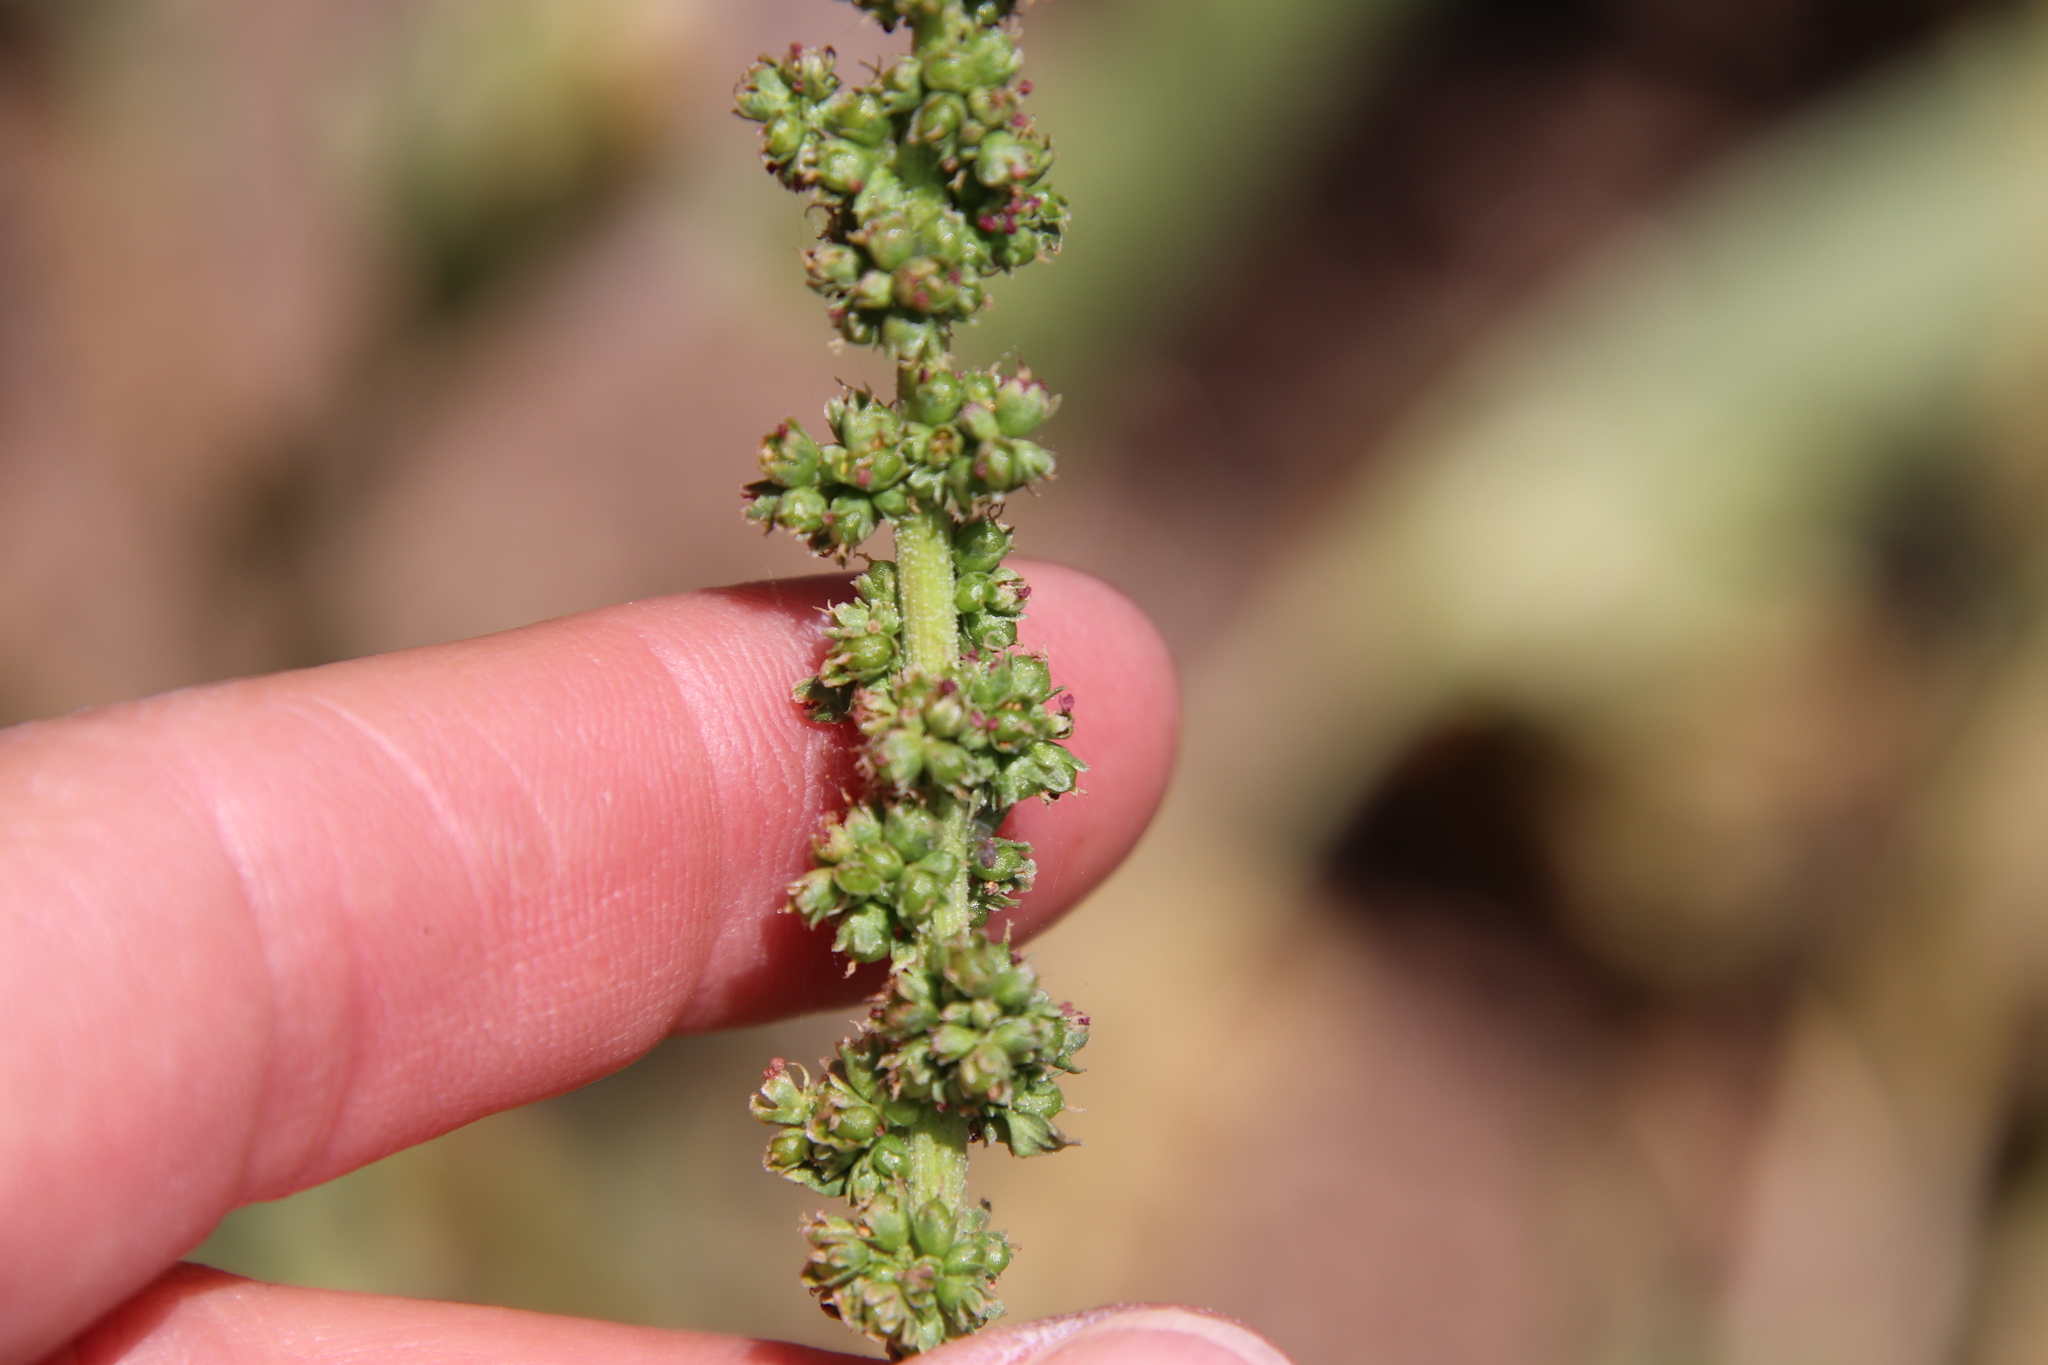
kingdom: Plantae
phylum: Tracheophyta
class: Magnoliopsida
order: Caryophyllales
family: Amaranthaceae
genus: Blitum
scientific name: Blitum californicum
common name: California goosefoot
